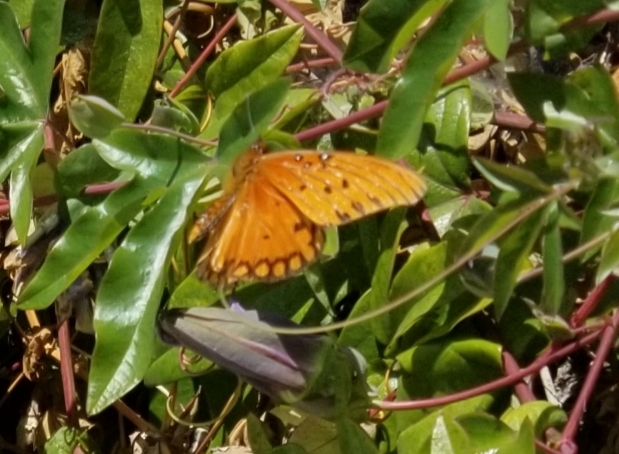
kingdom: Animalia
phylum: Arthropoda
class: Insecta
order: Lepidoptera
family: Nymphalidae
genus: Dione
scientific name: Dione vanillae
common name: Gulf fritillary
